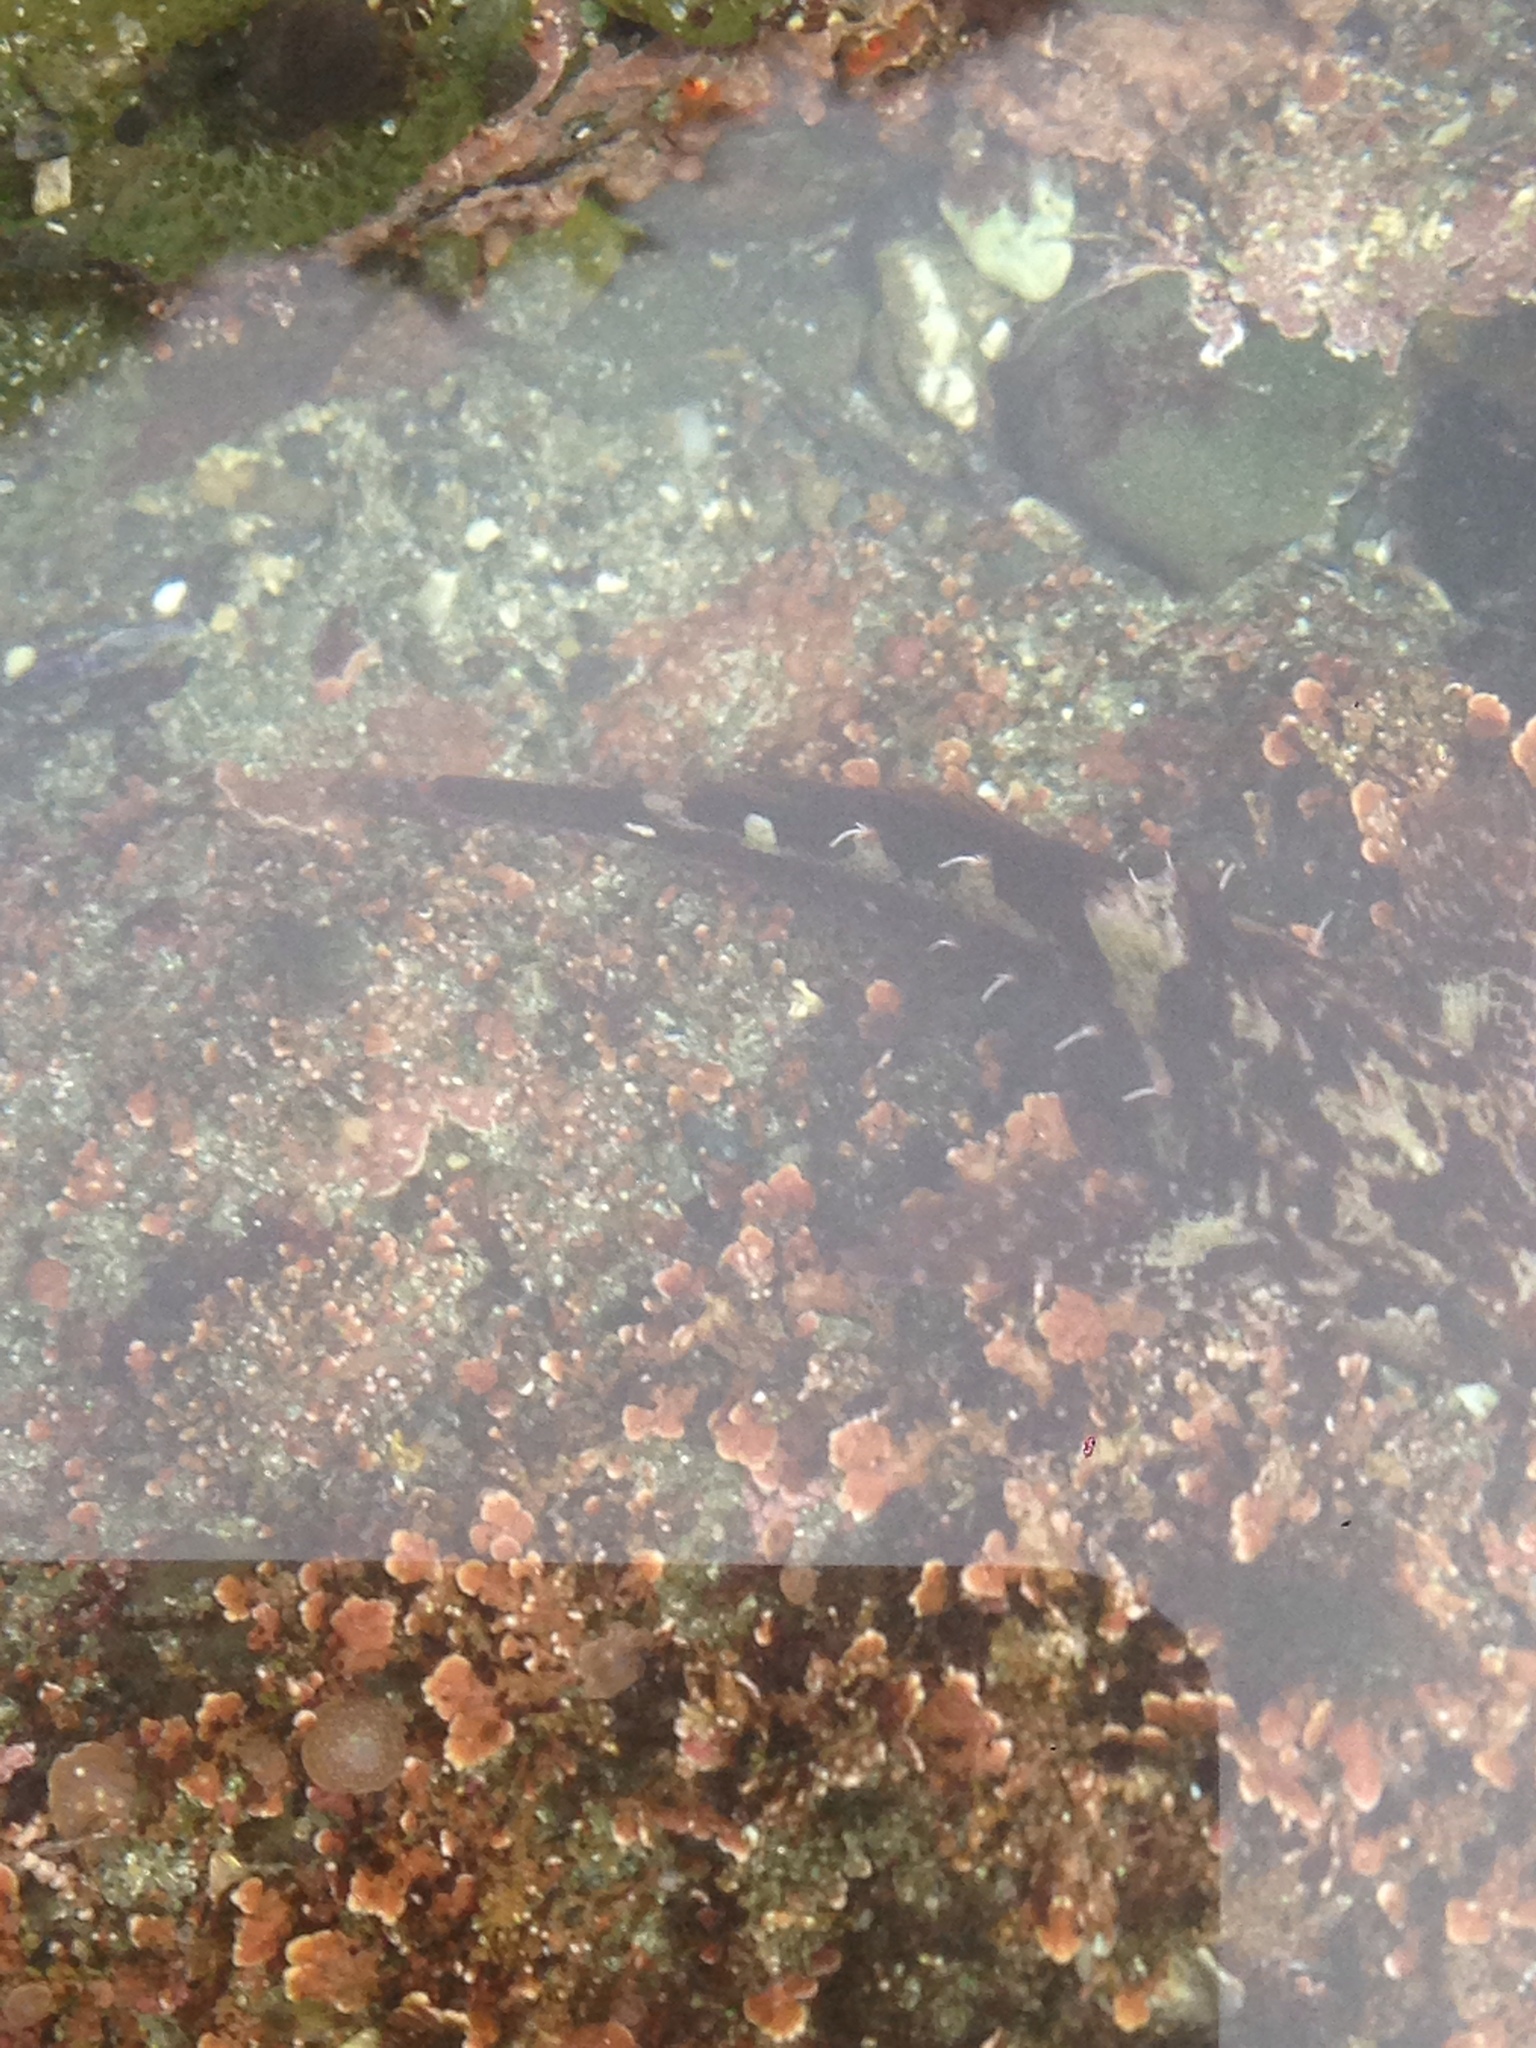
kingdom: Animalia
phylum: Chordata
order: Scorpaeniformes
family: Cottidae
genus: Oligocottus
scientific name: Oligocottus snyderi
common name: Fluffy sculpin
